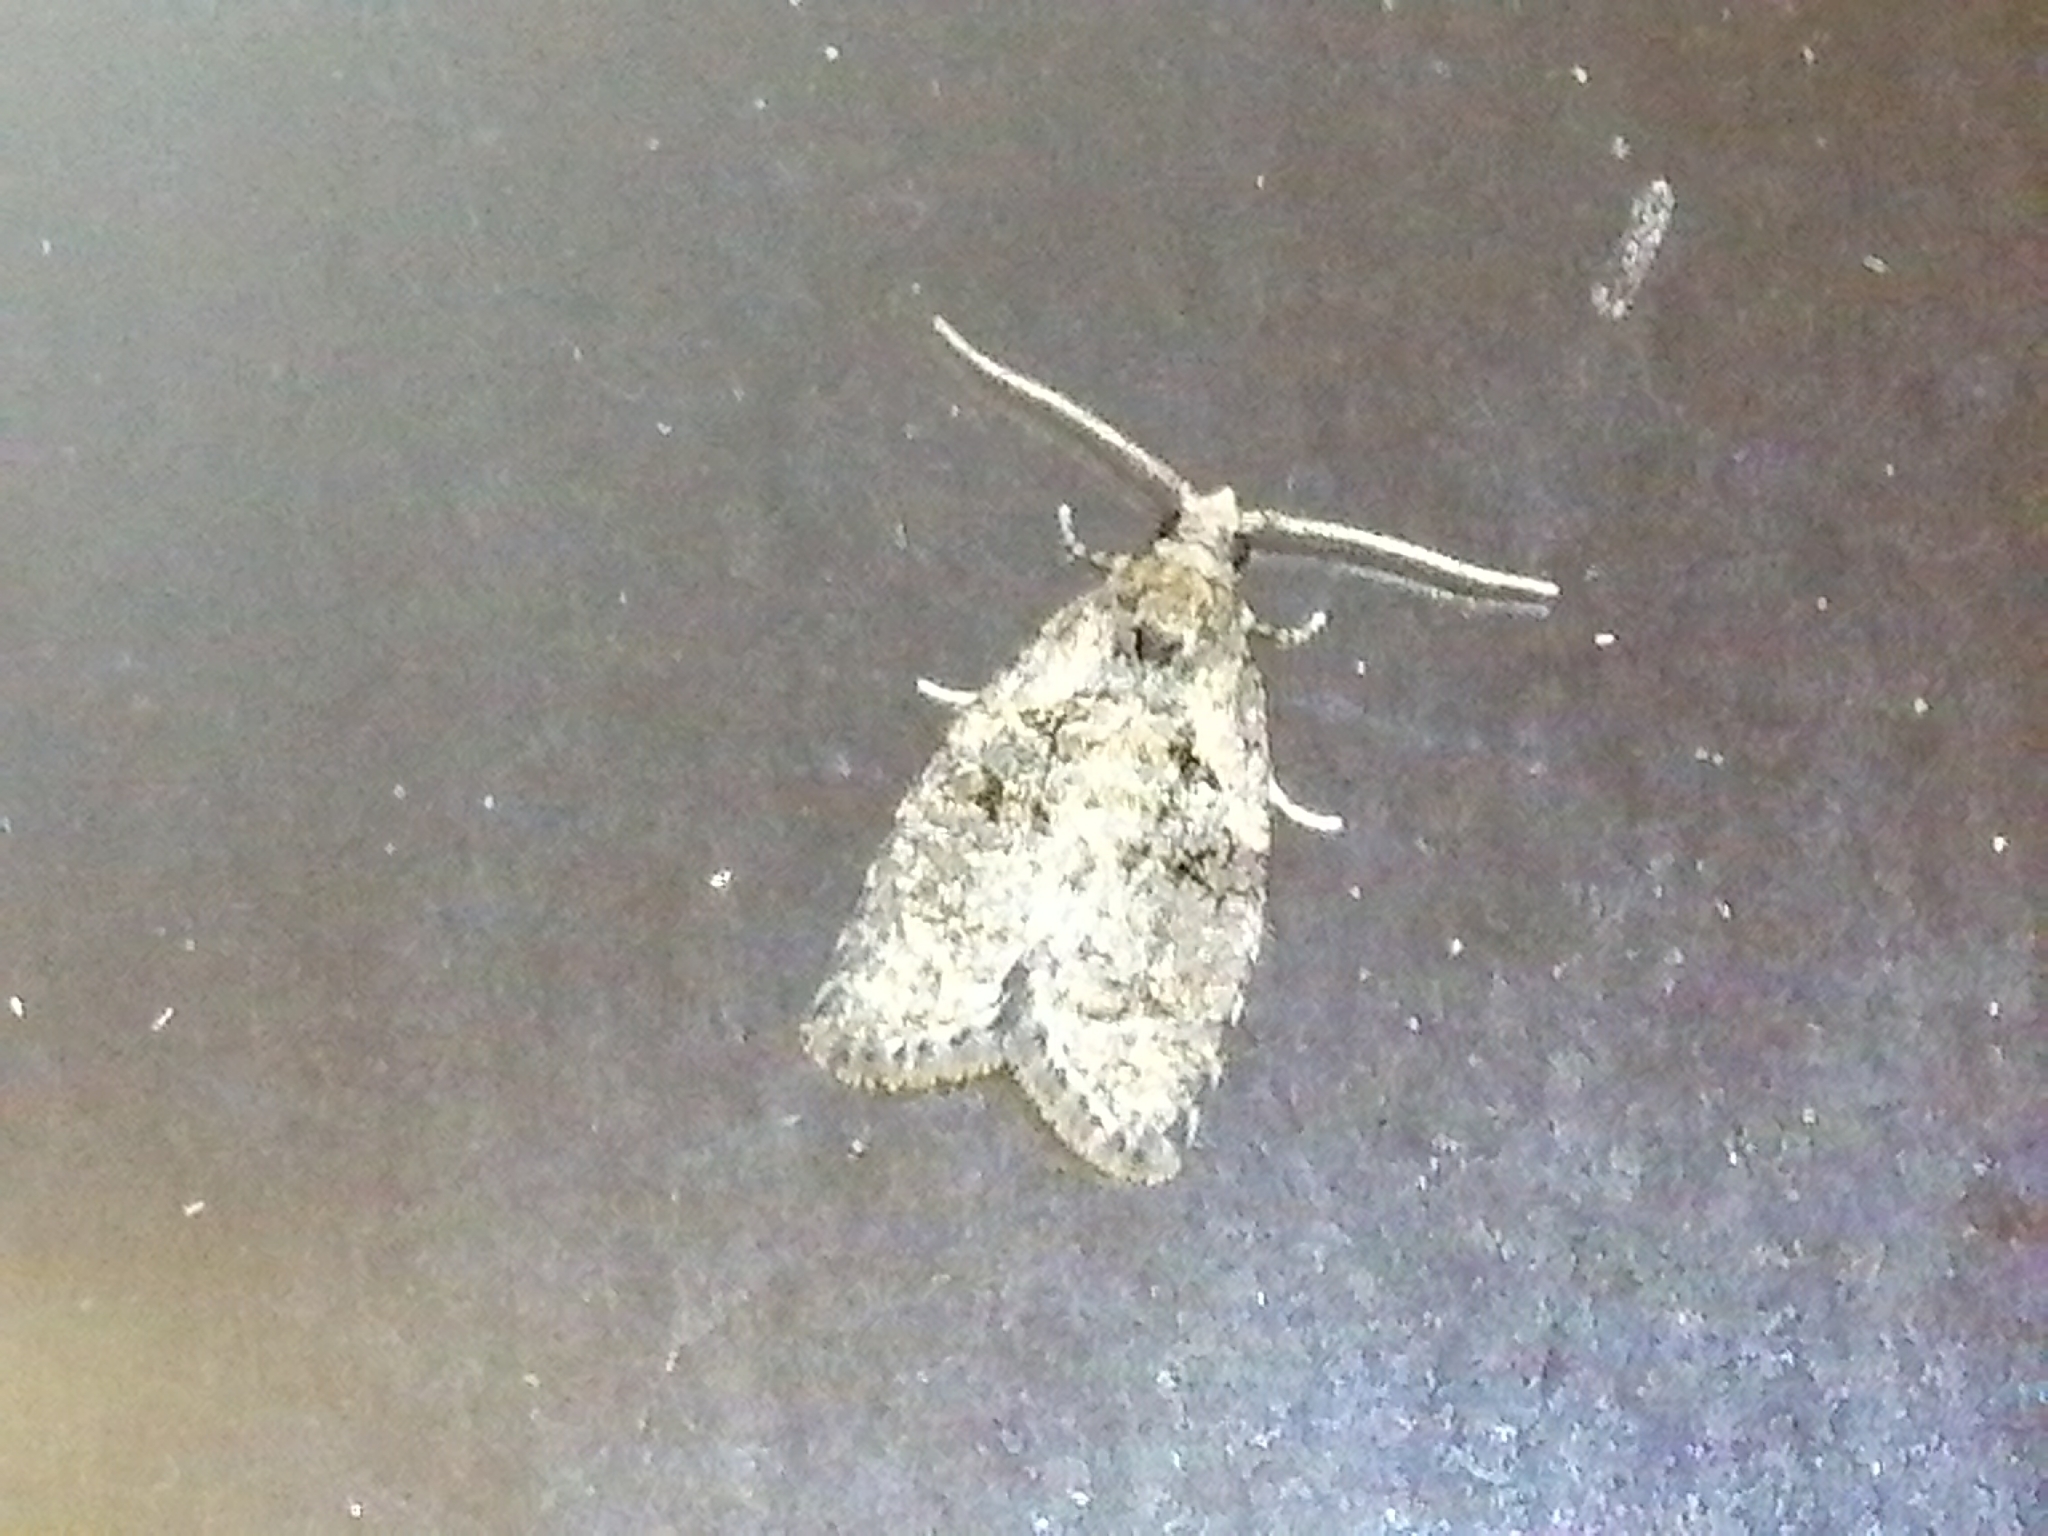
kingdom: Animalia
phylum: Arthropoda
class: Insecta
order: Lepidoptera
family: Tortricidae
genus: Capua
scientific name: Capua intractana
